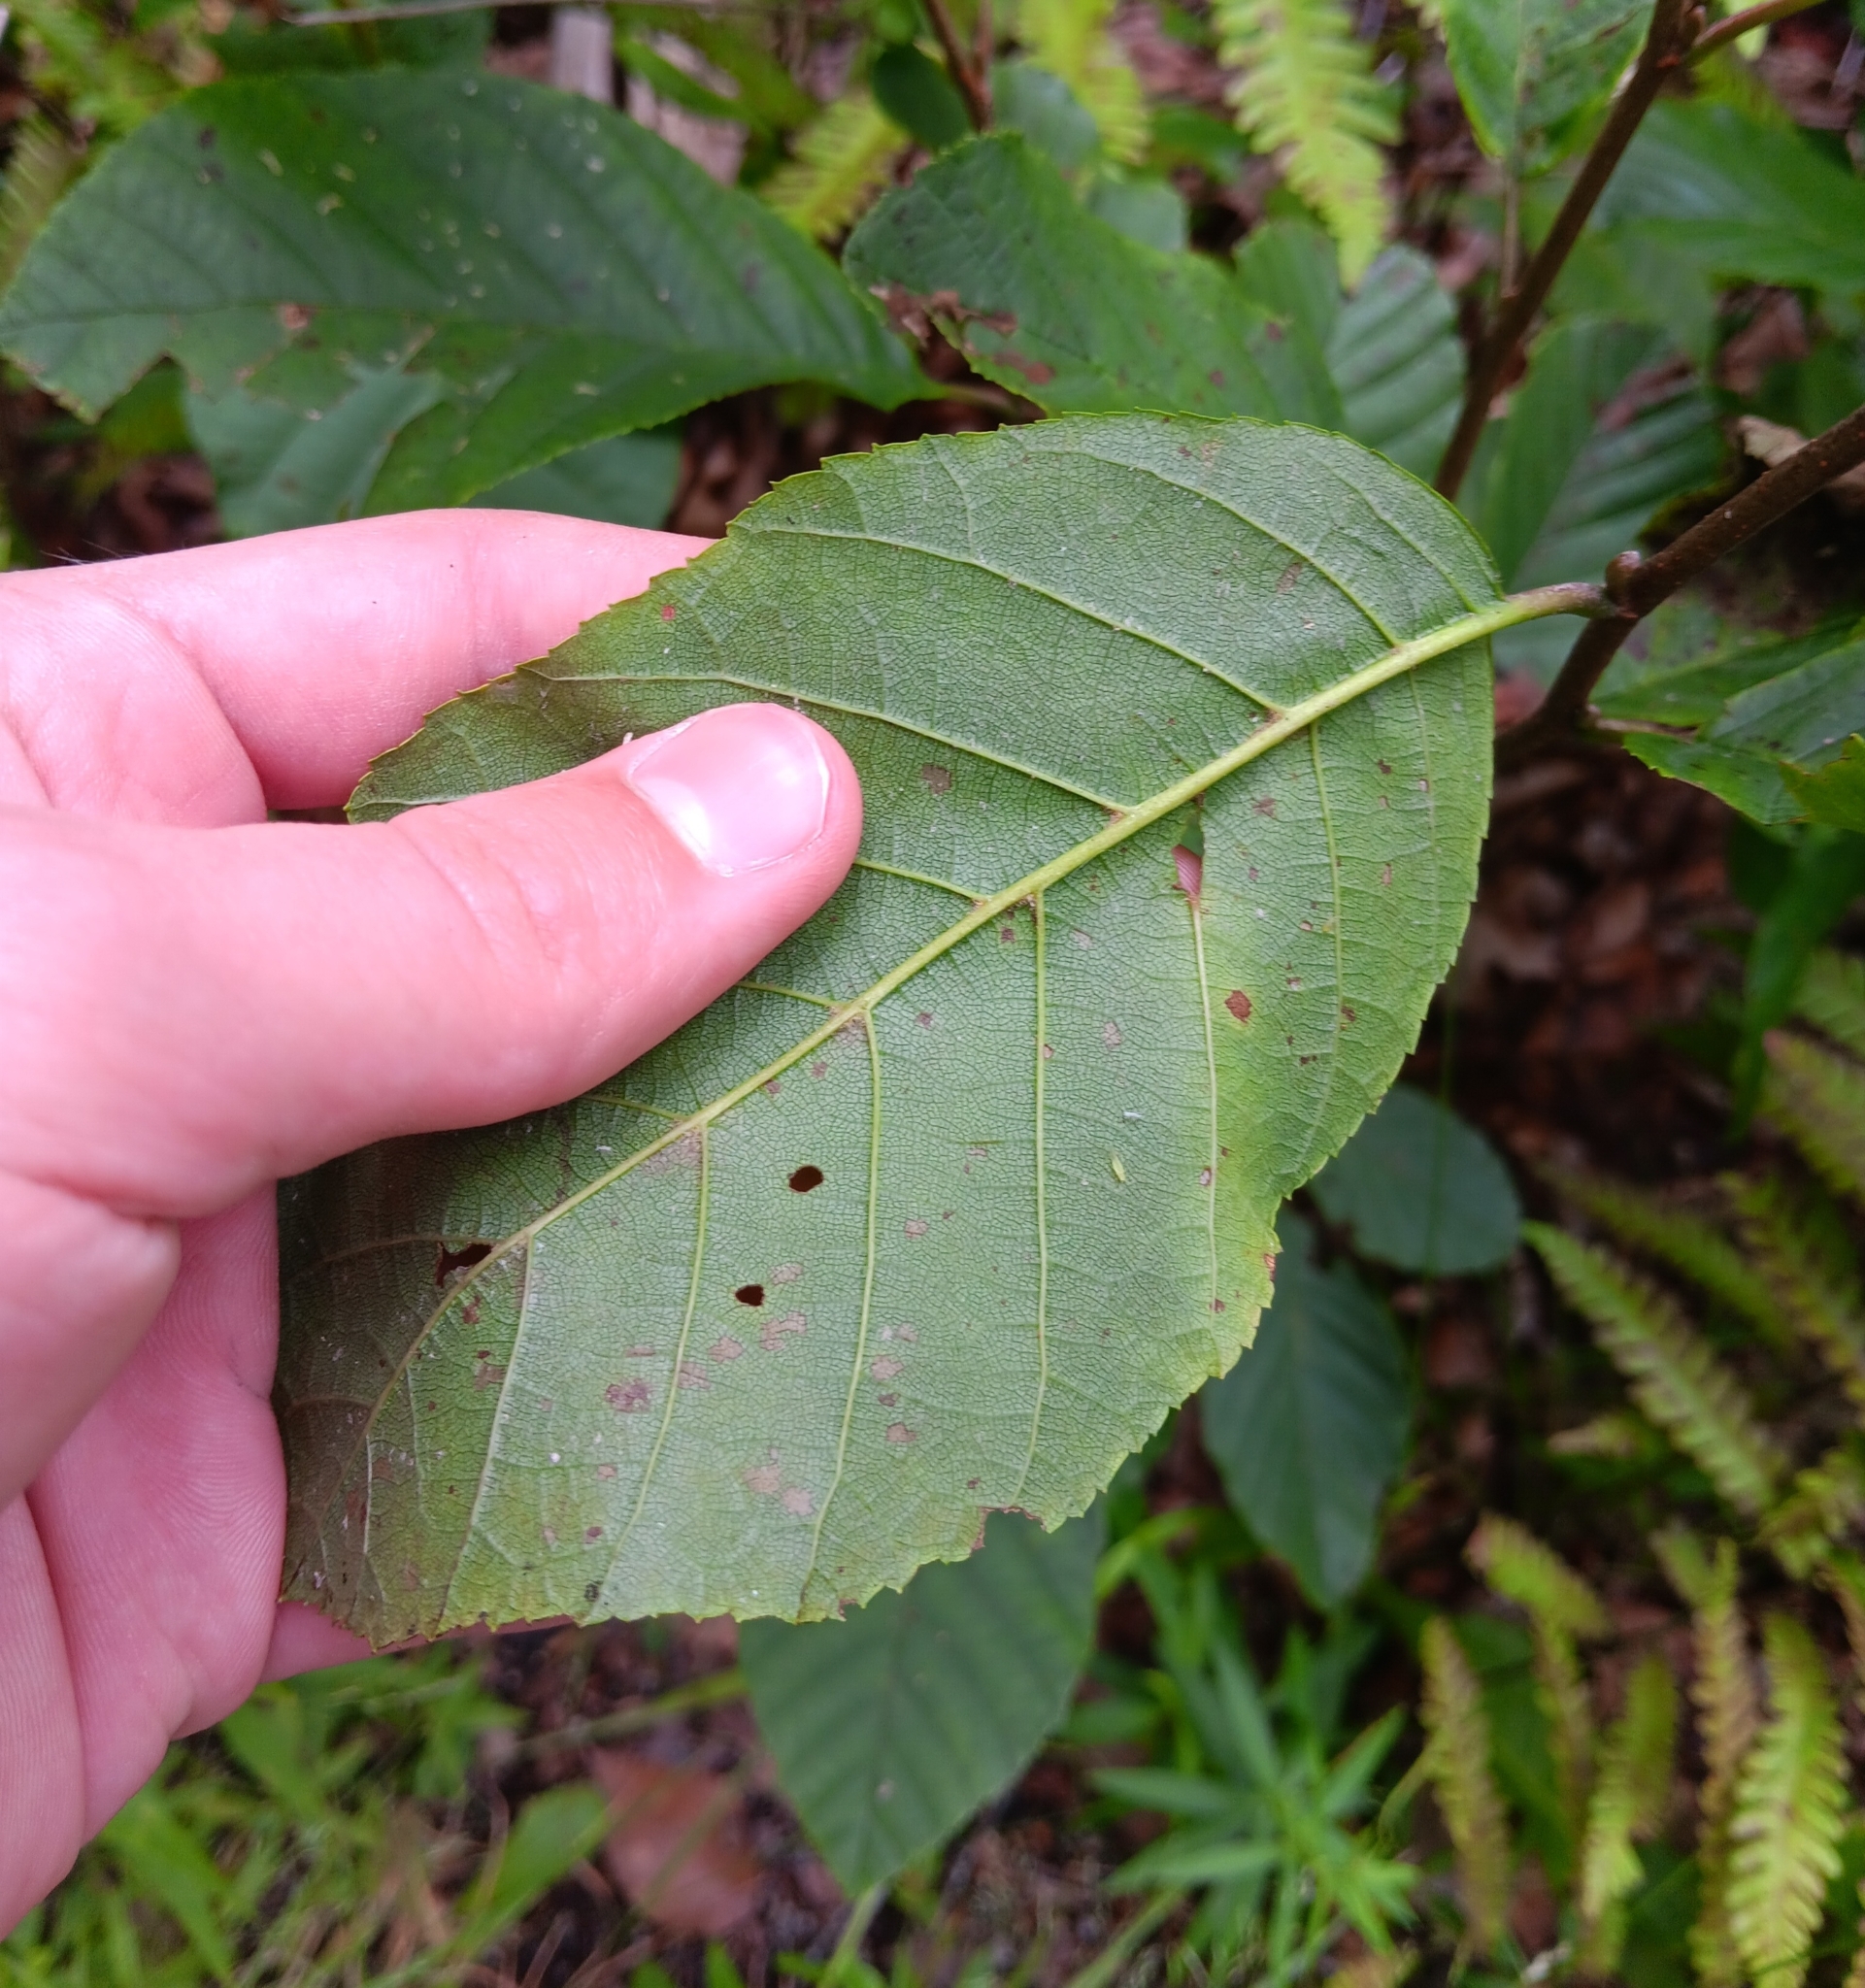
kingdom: Plantae
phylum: Tracheophyta
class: Magnoliopsida
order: Fagales
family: Betulaceae
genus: Alnus
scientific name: Alnus serrulata
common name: Hazel alder
